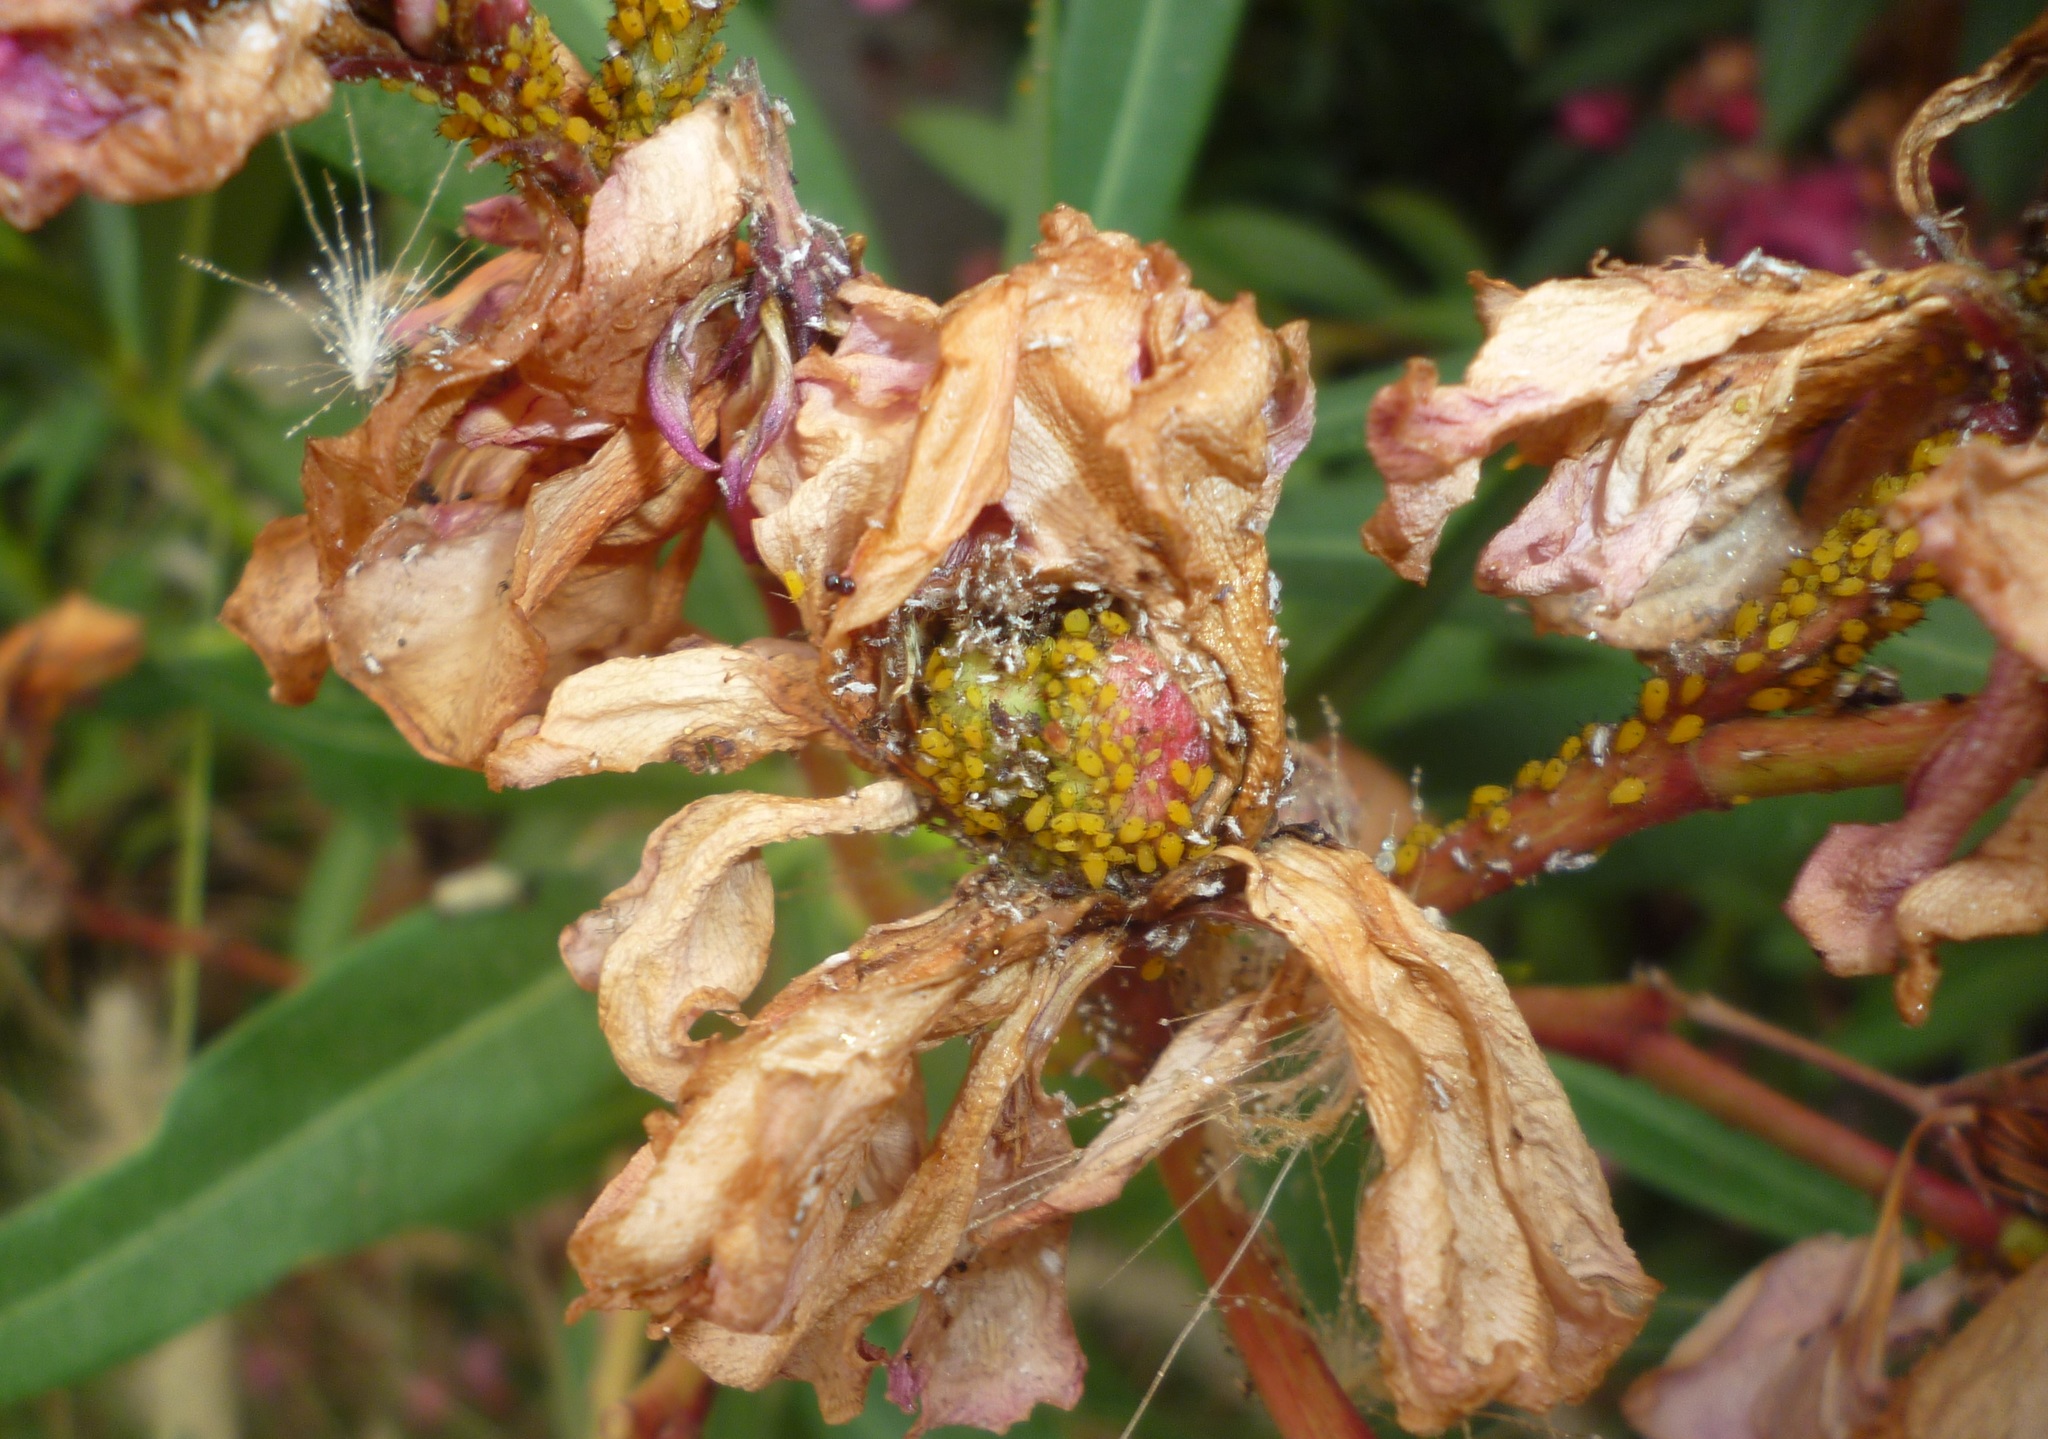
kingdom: Animalia
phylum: Arthropoda
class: Insecta
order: Hemiptera
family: Aphididae
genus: Aphis
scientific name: Aphis nerii
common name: Oleander aphid
